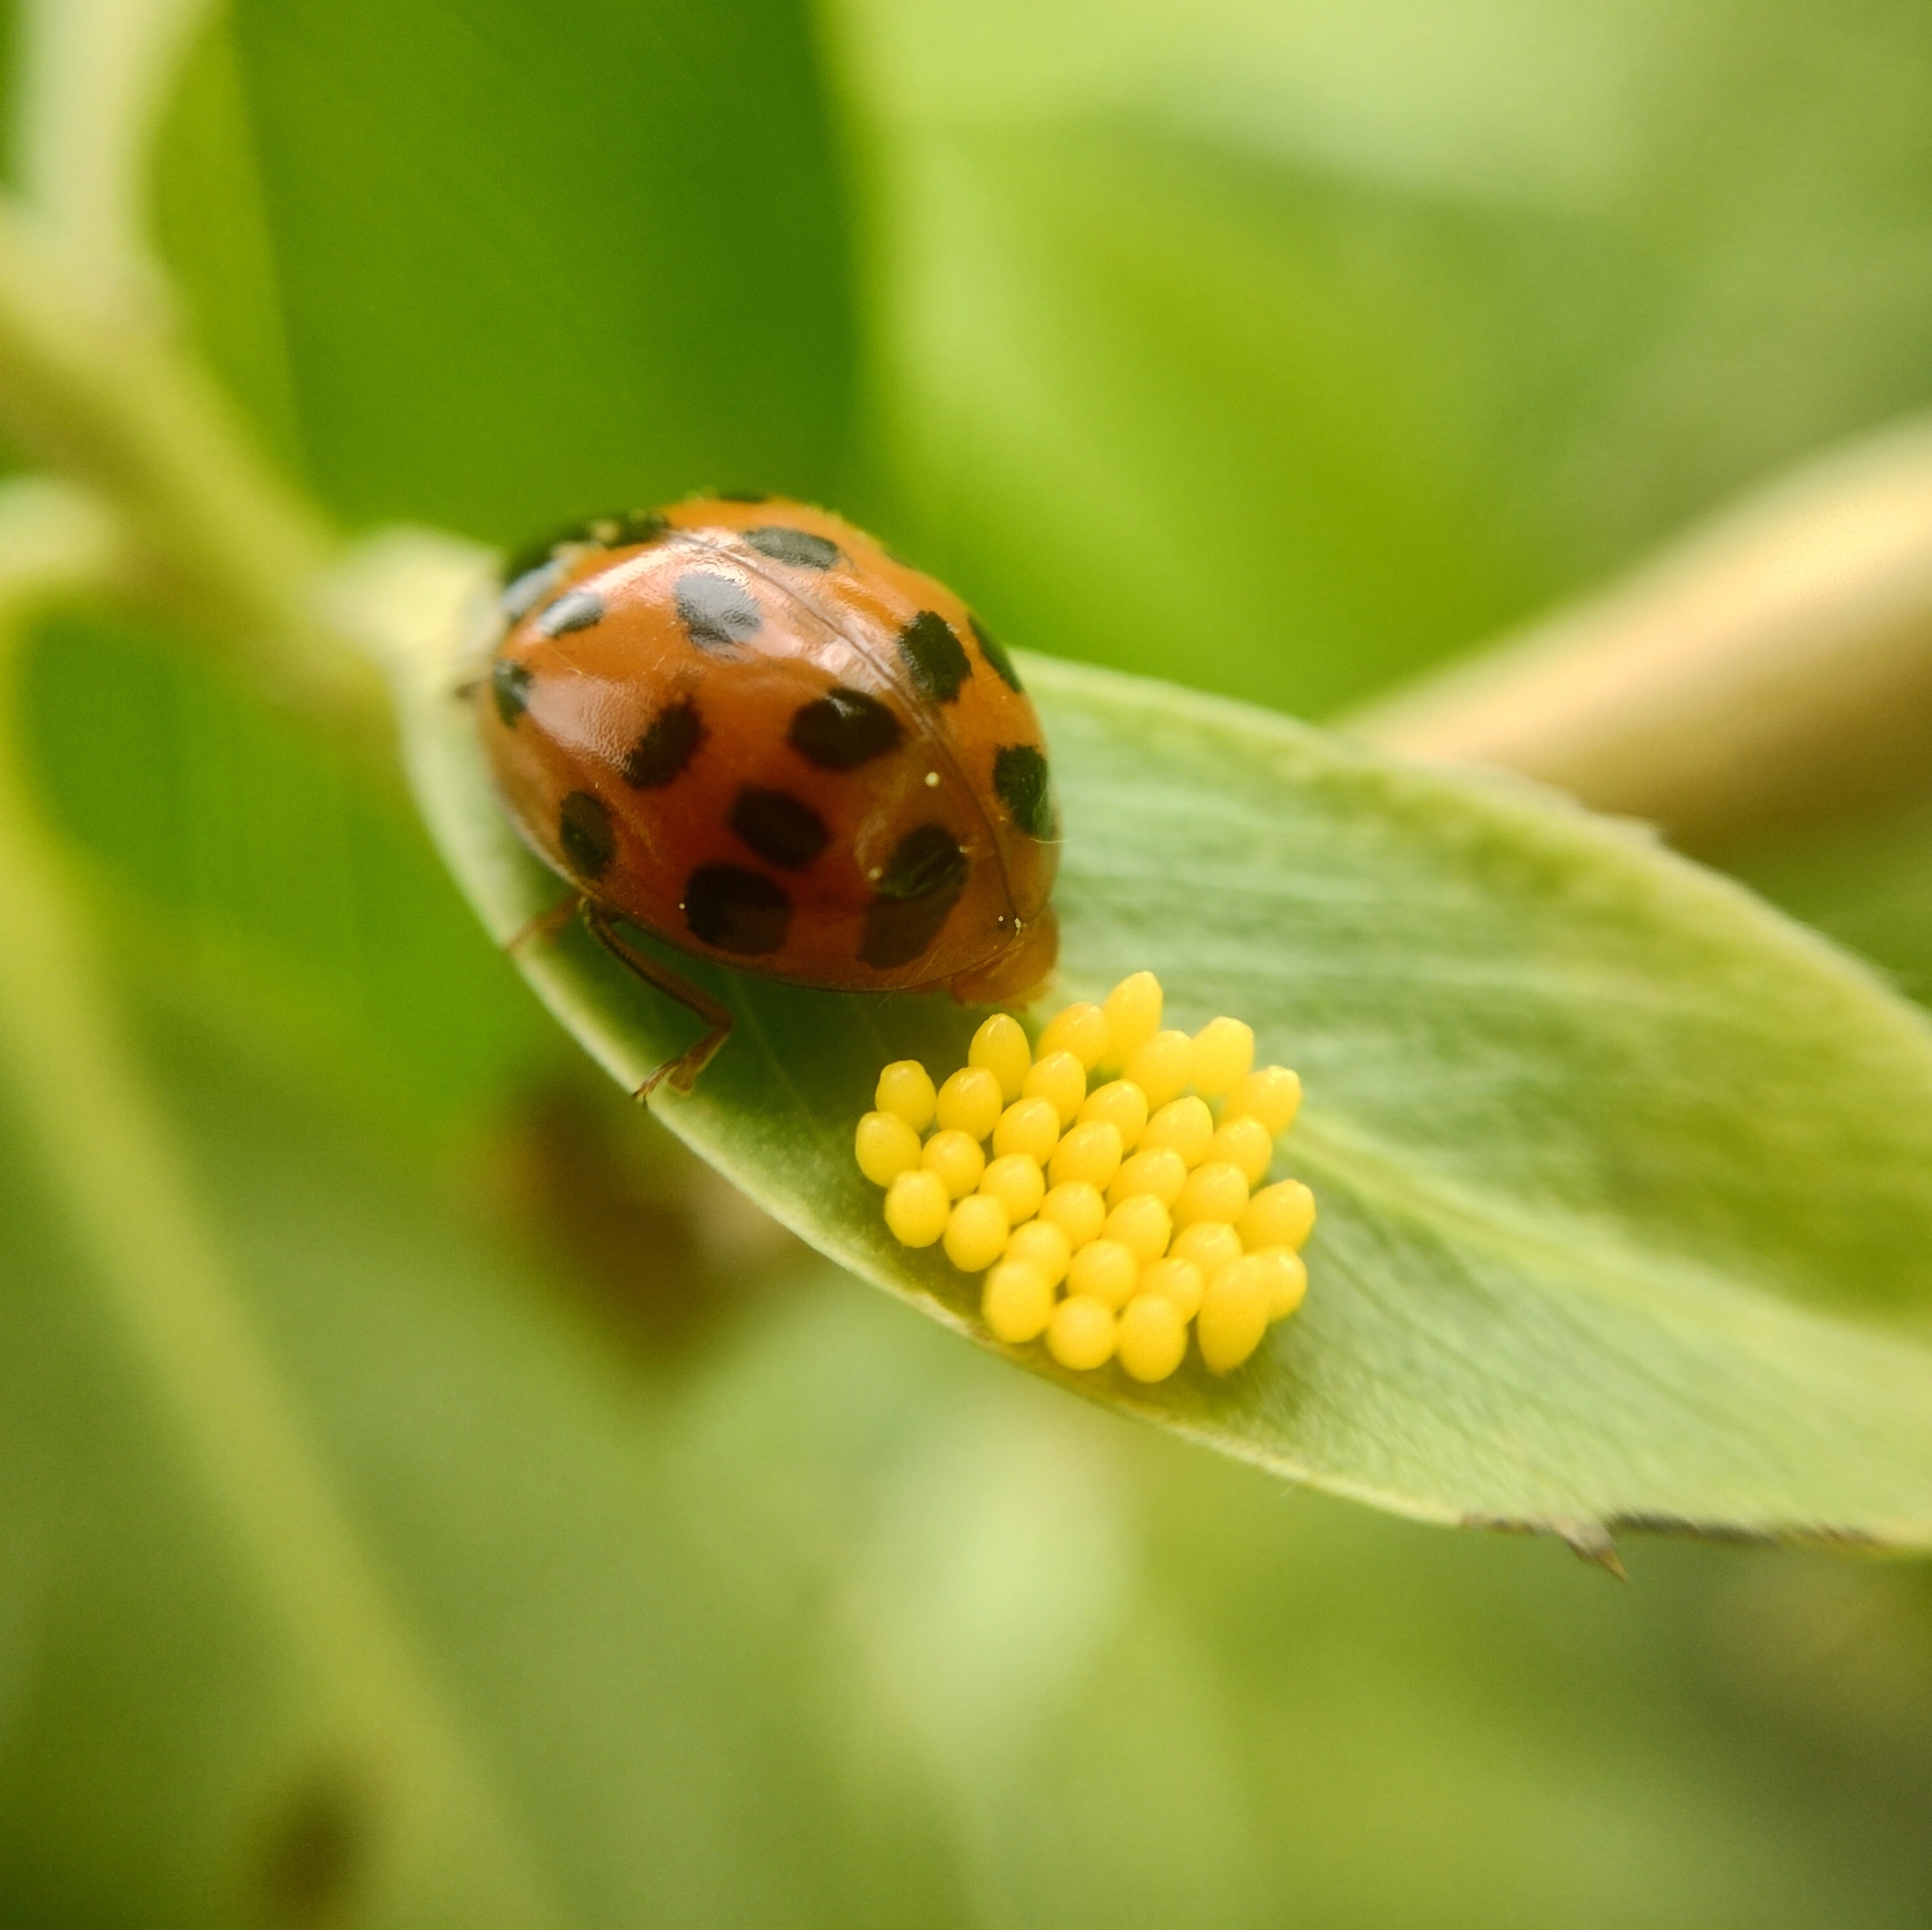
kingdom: Animalia
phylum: Arthropoda
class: Insecta
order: Coleoptera
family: Coccinellidae
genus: Harmonia
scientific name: Harmonia axyridis
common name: Harlequin ladybird
